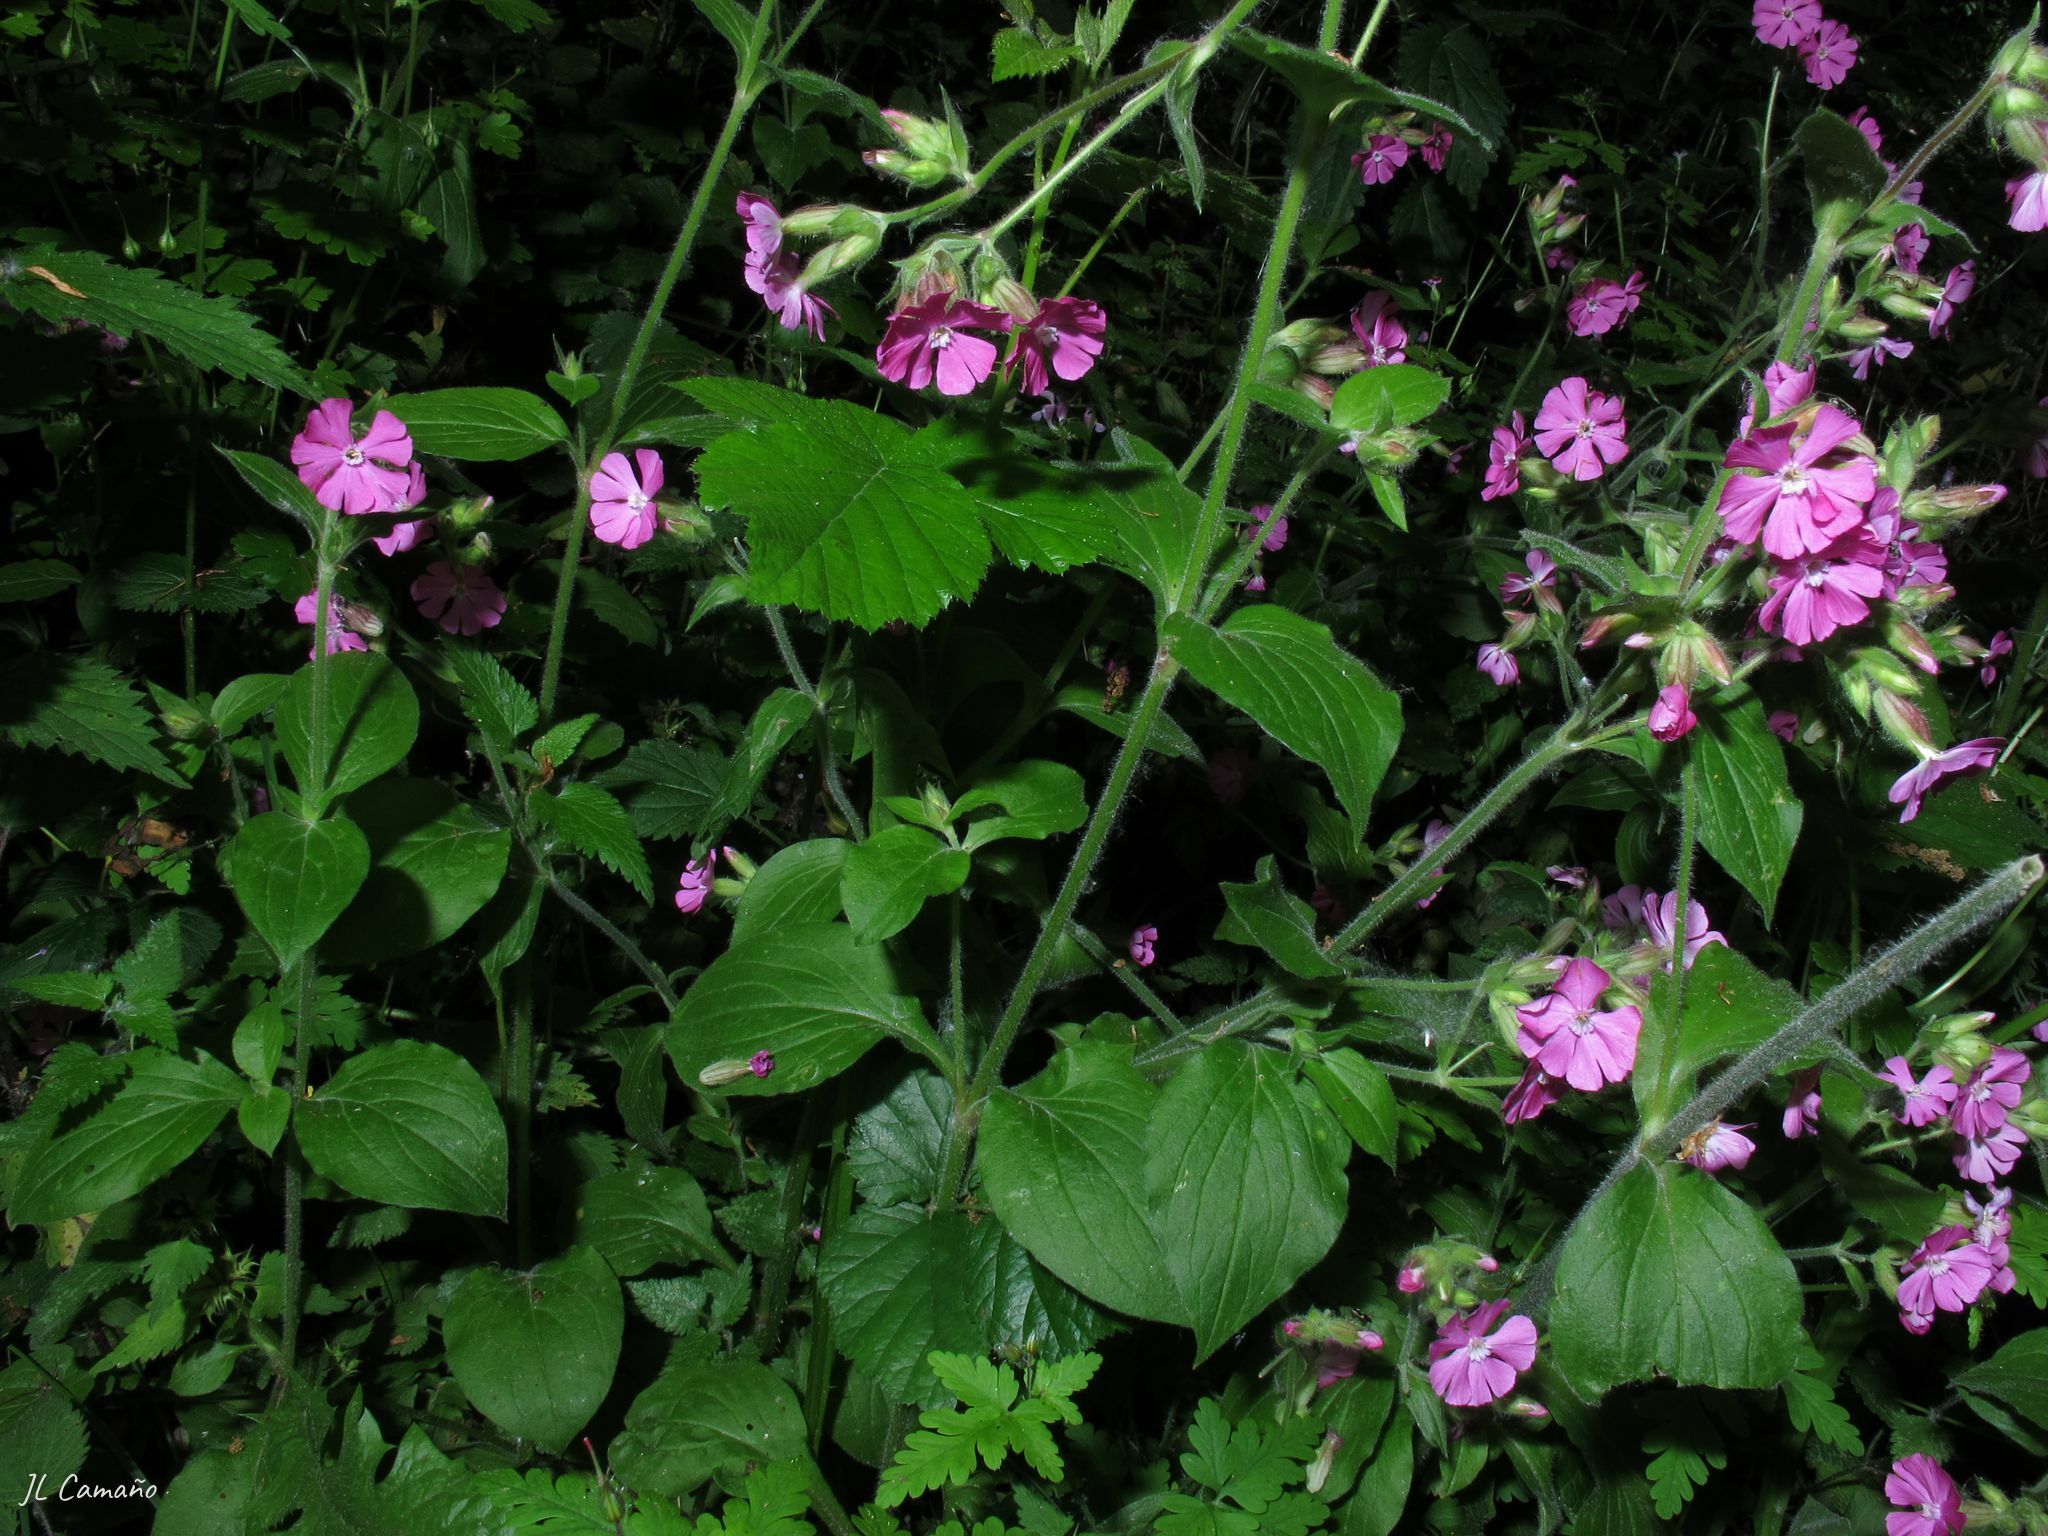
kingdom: Plantae
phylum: Tracheophyta
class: Magnoliopsida
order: Caryophyllales
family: Caryophyllaceae
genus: Silene
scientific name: Silene dioica
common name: Red campion
